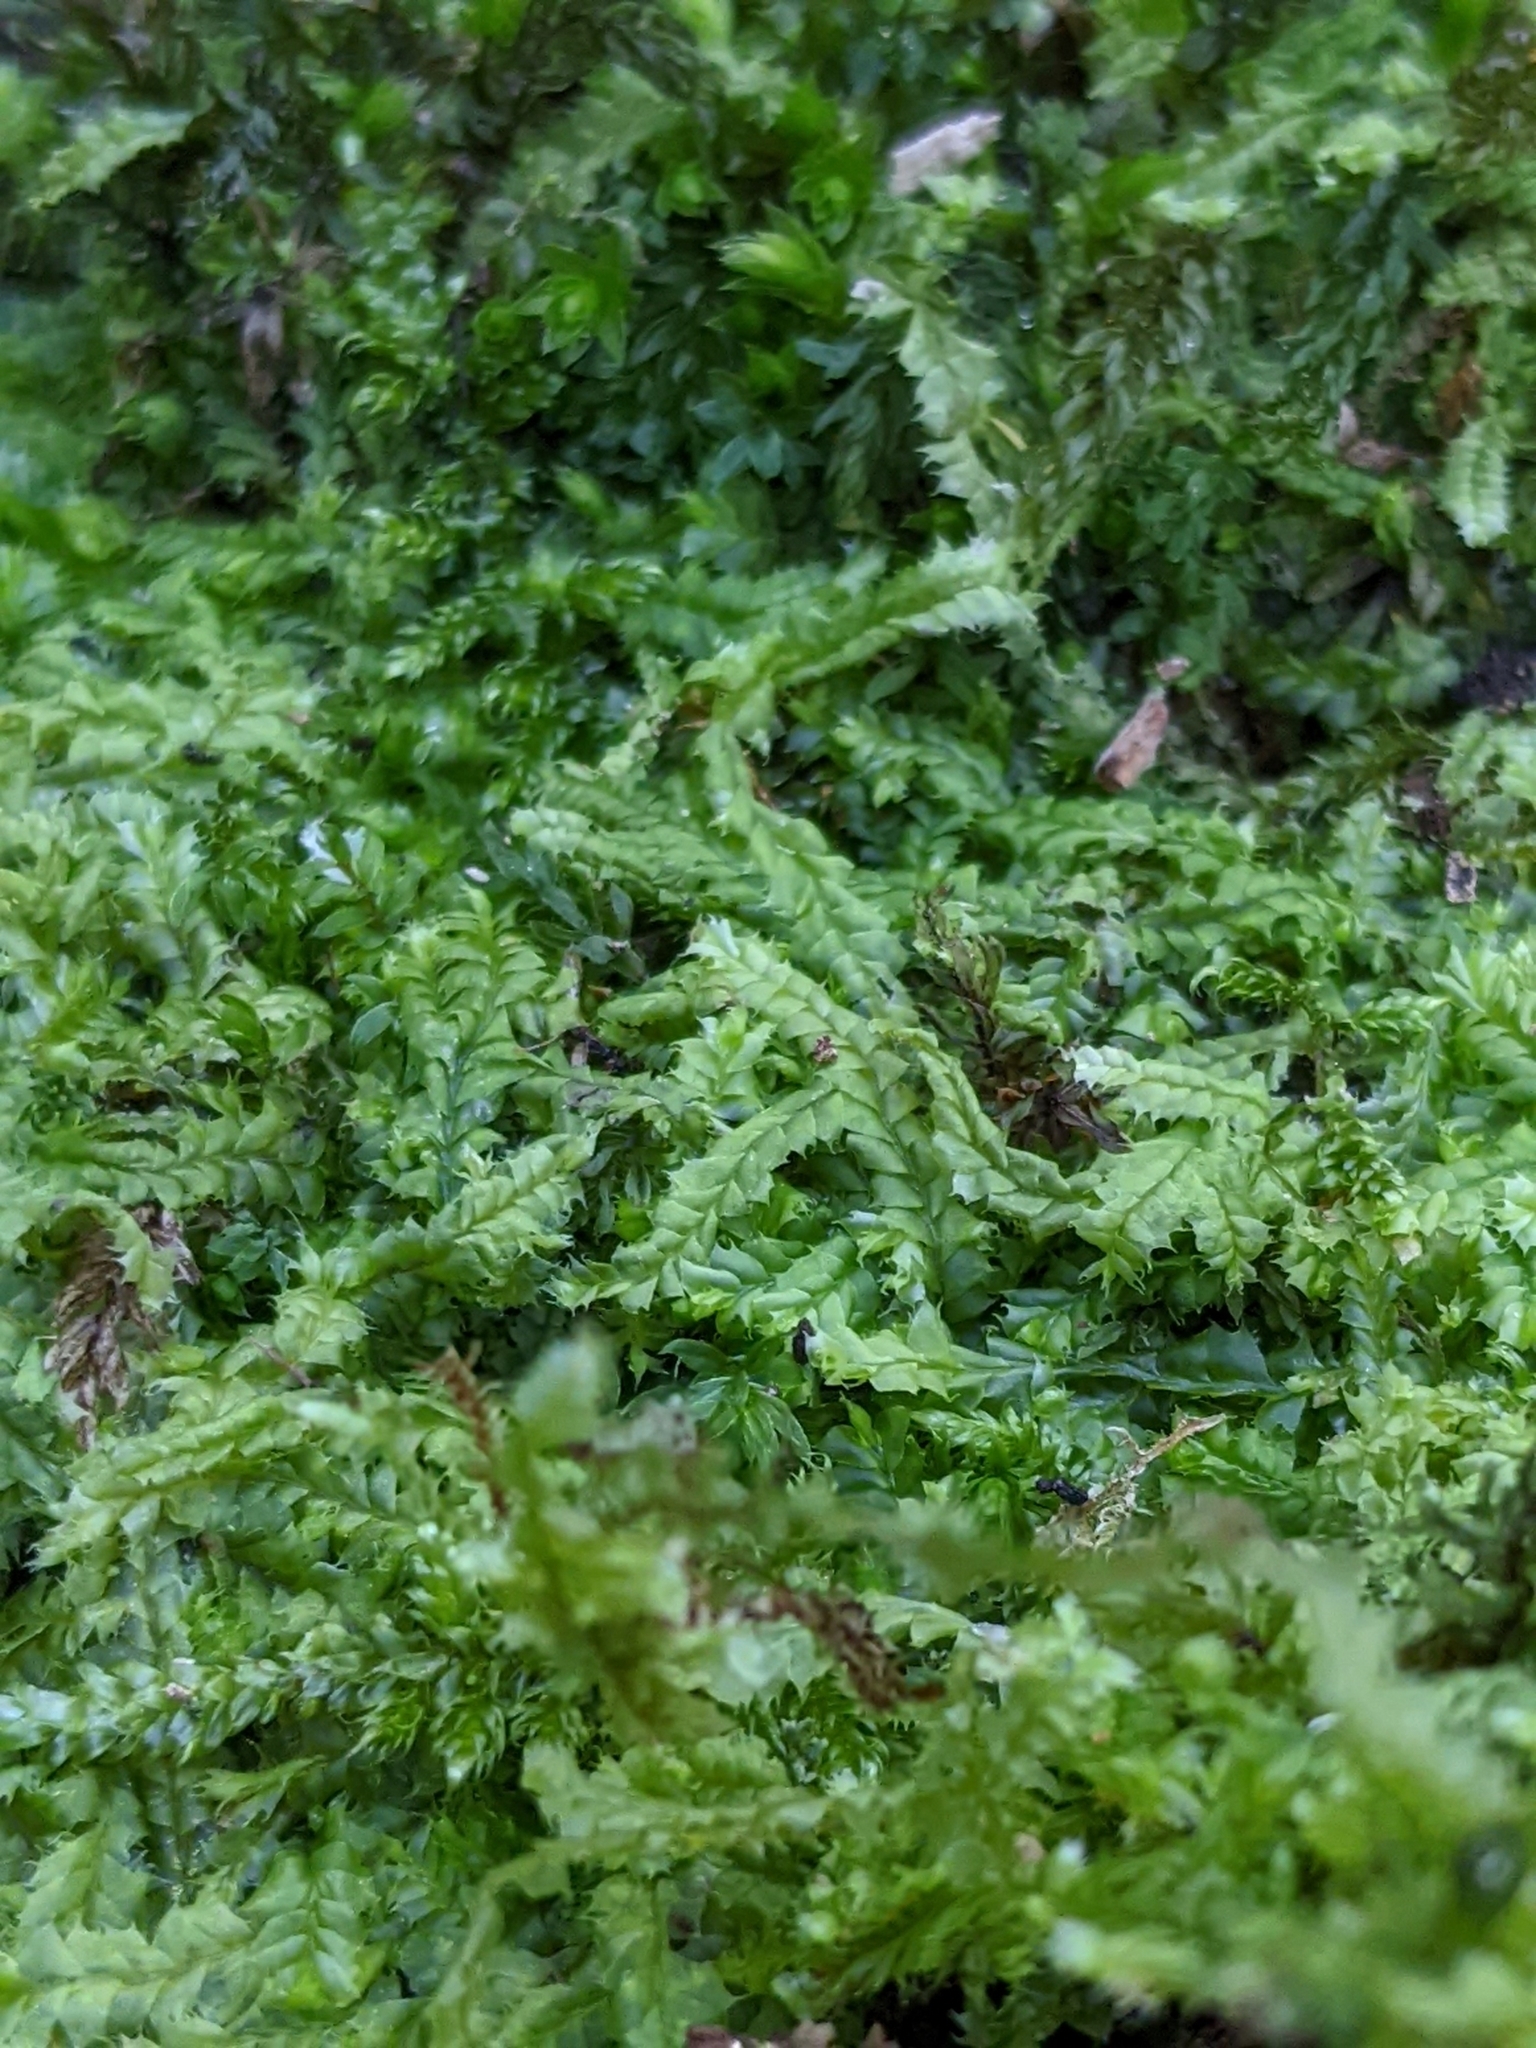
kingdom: Plantae
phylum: Marchantiophyta
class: Jungermanniopsida
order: Jungermanniales
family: Lophocoleaceae
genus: Lophocolea
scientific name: Lophocolea bidentata
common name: Bifid crestwort
